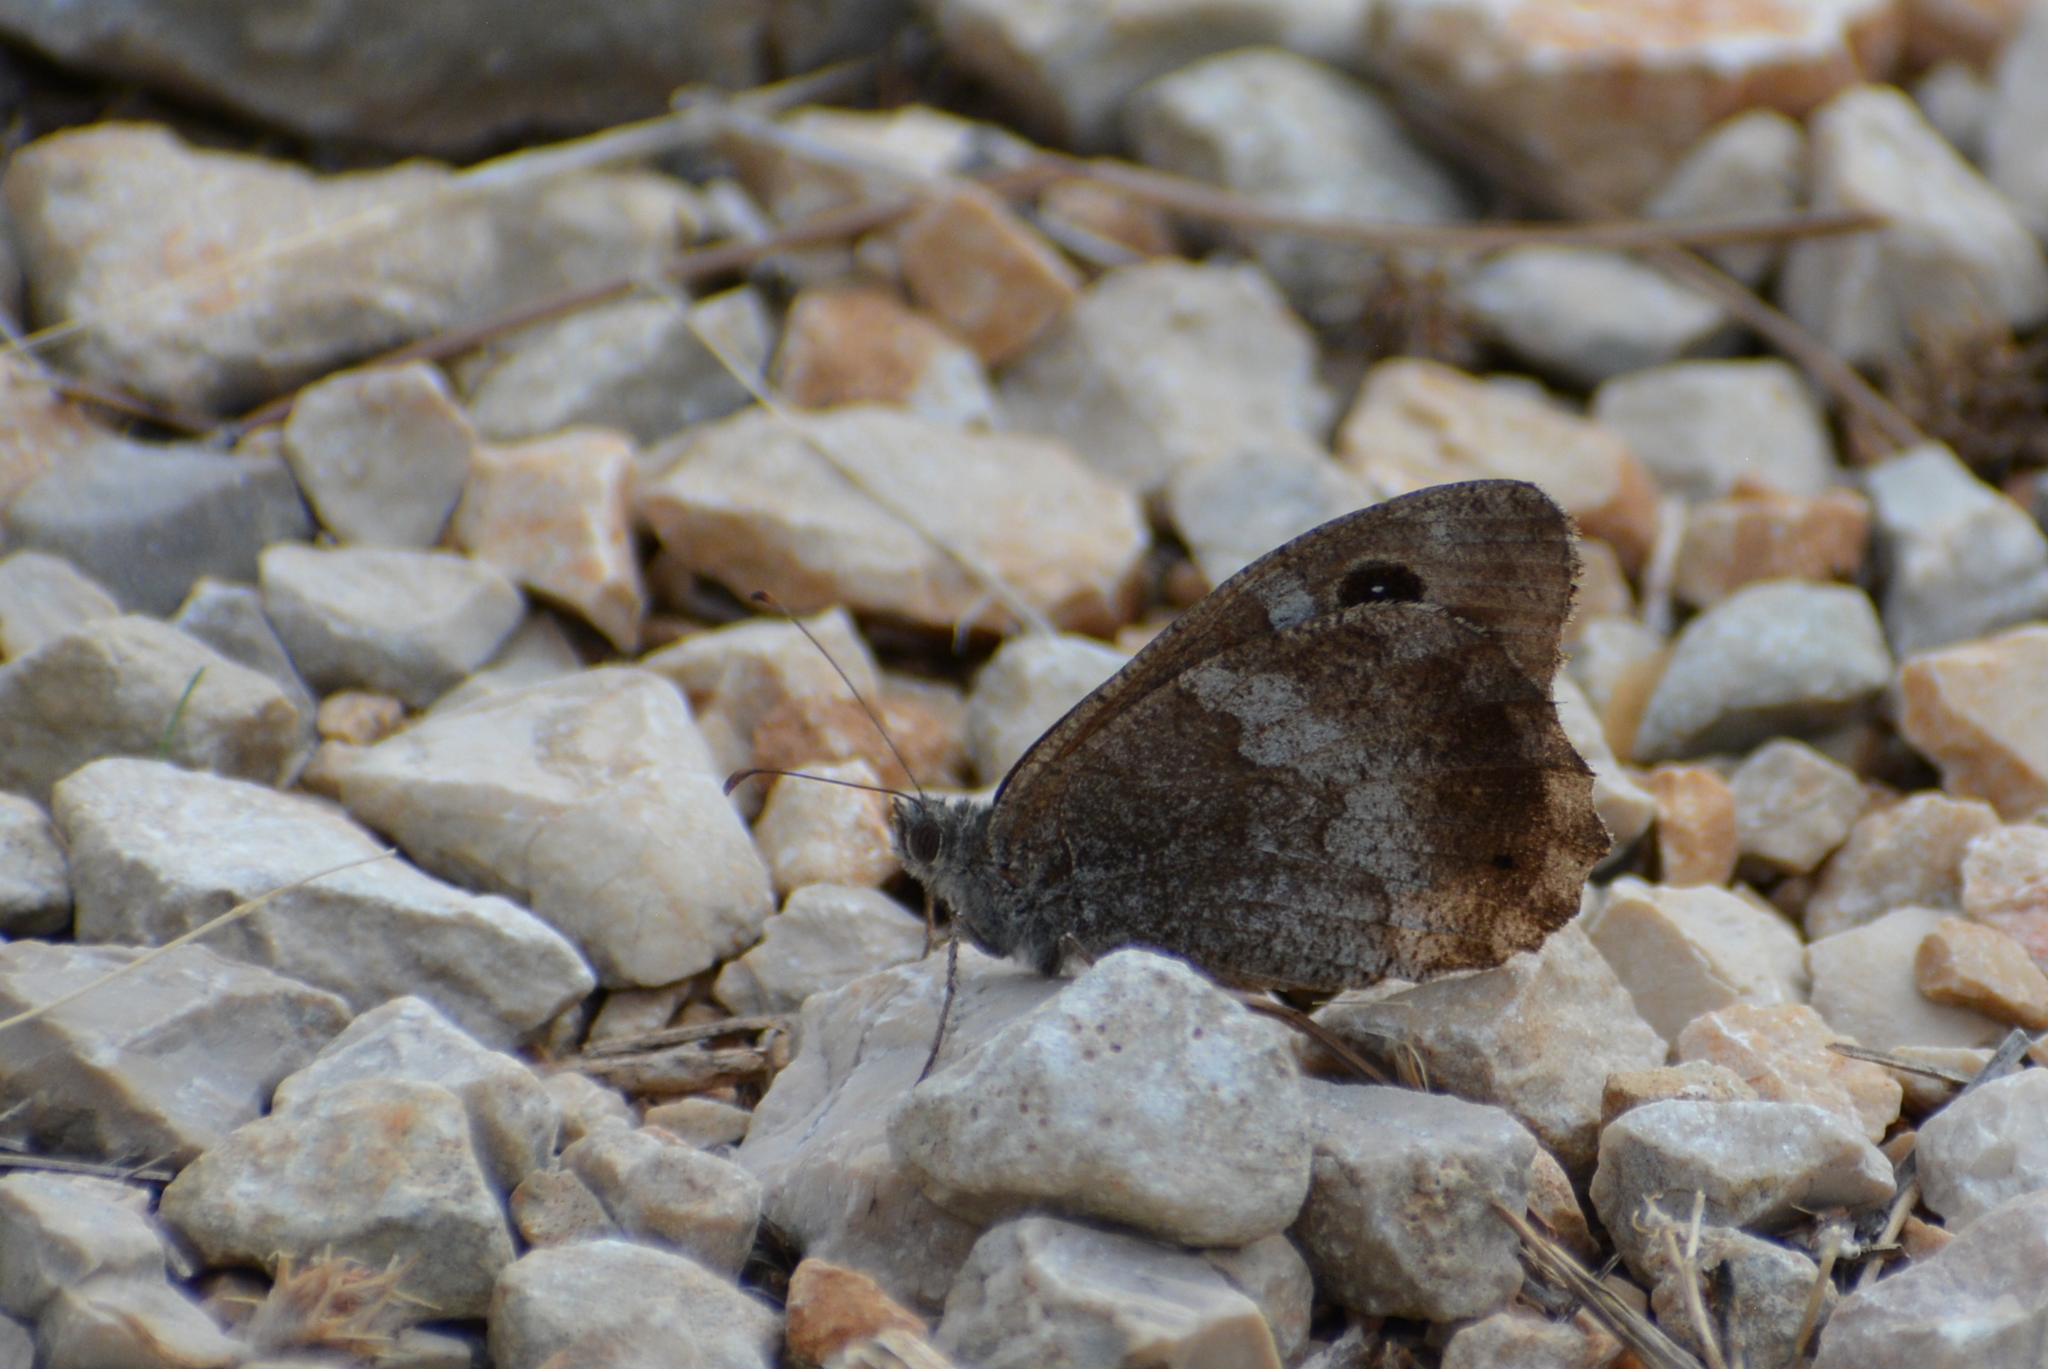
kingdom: Animalia
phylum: Arthropoda
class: Insecta
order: Lepidoptera
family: Nymphalidae
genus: Hipparchia
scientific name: Hipparchia statilinus
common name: Tree grayling
